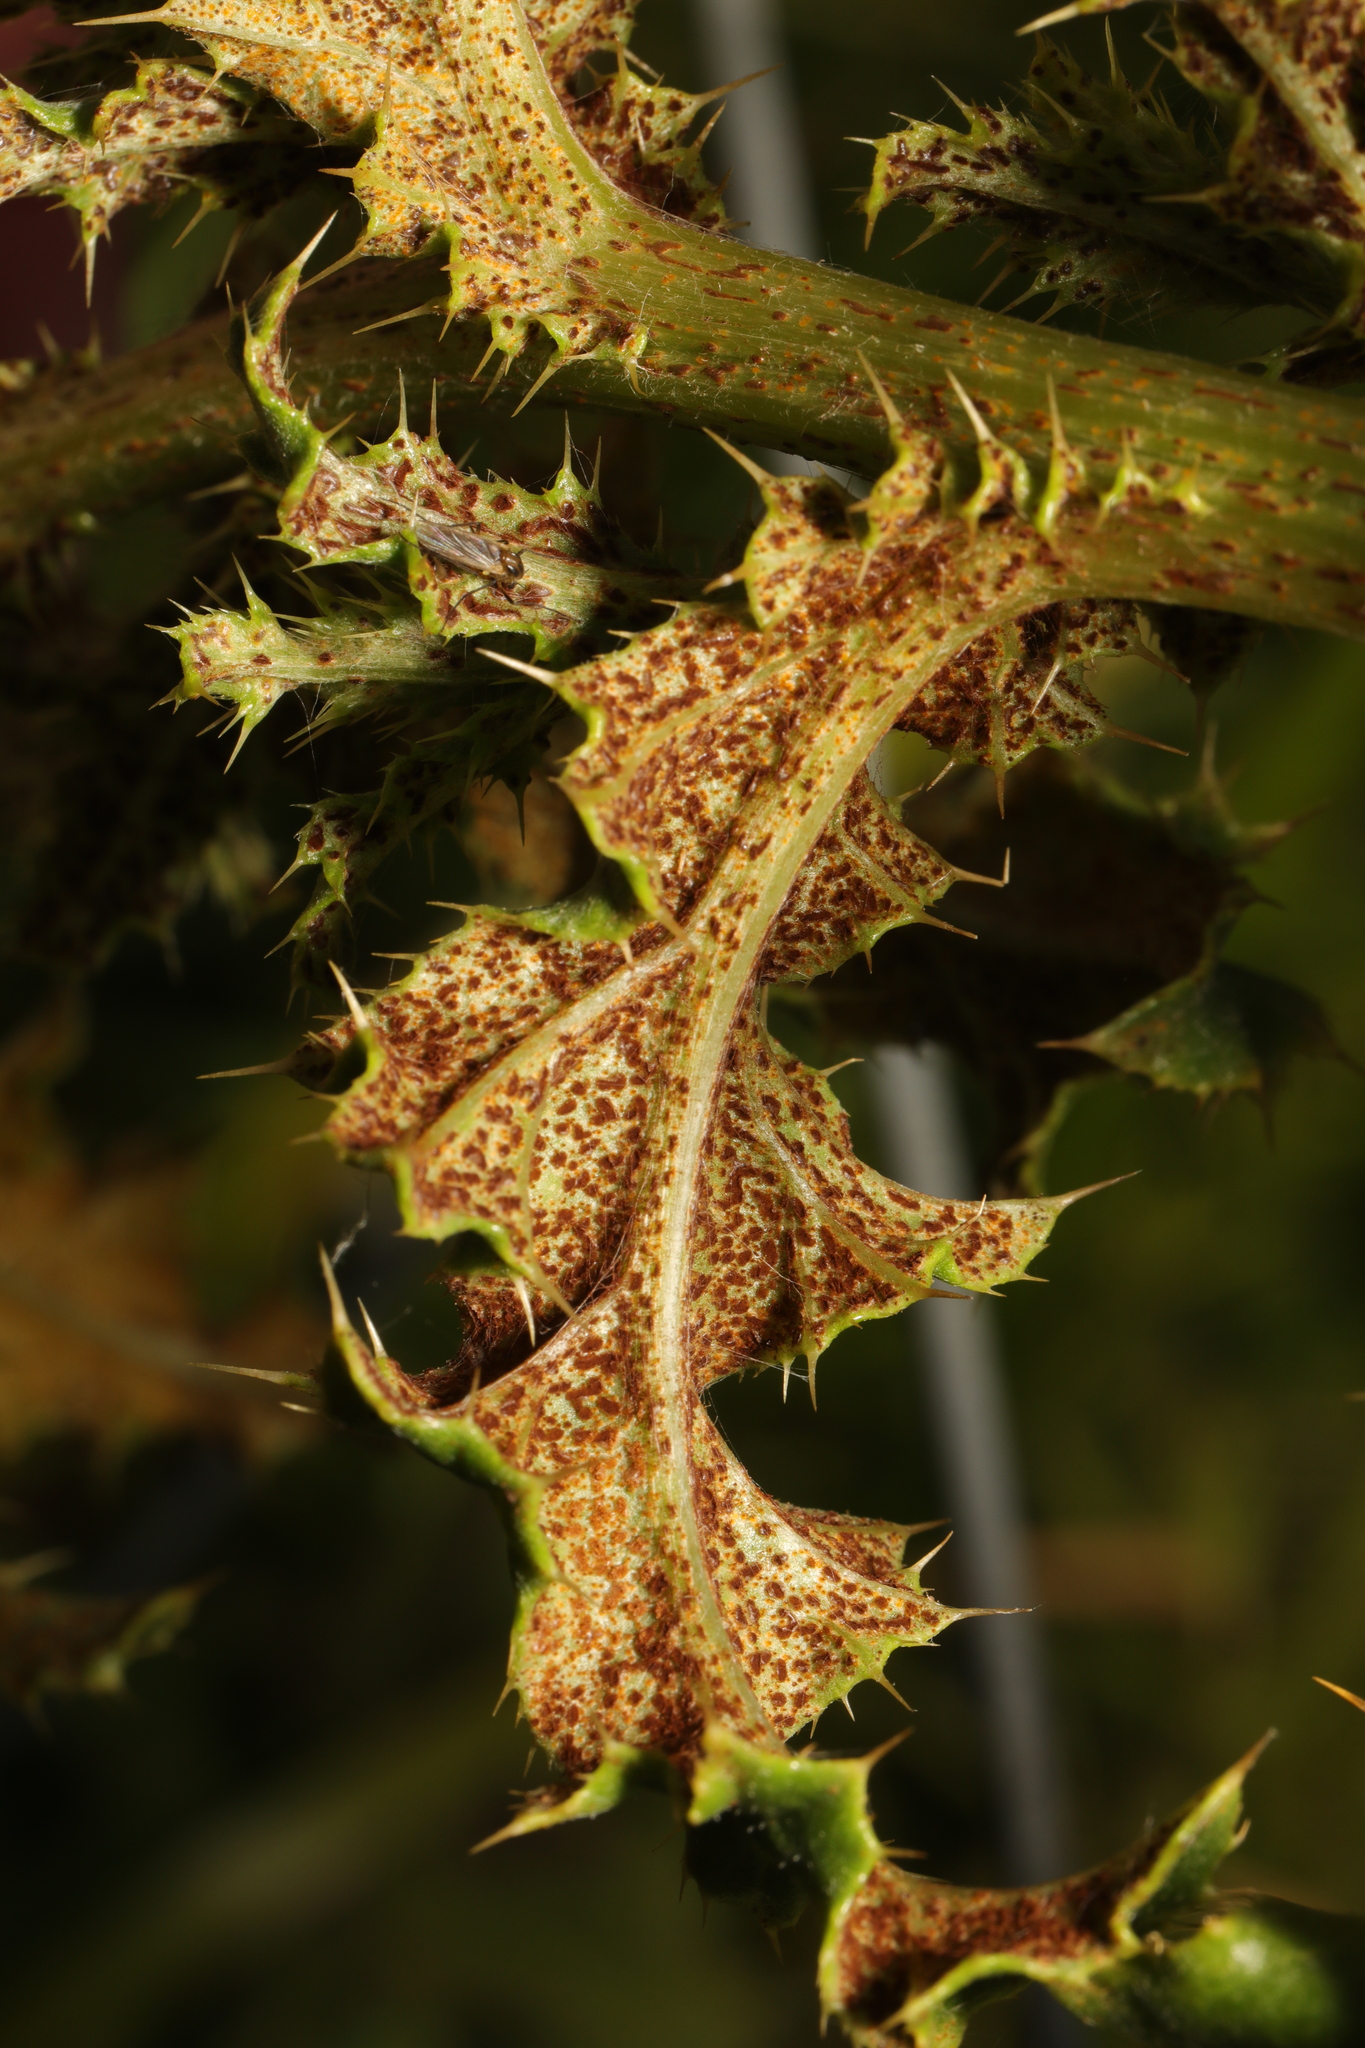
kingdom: Fungi
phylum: Basidiomycota
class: Pucciniomycetes
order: Pucciniales
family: Pucciniaceae
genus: Puccinia
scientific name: Puccinia suaveolens
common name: Thistle rust
